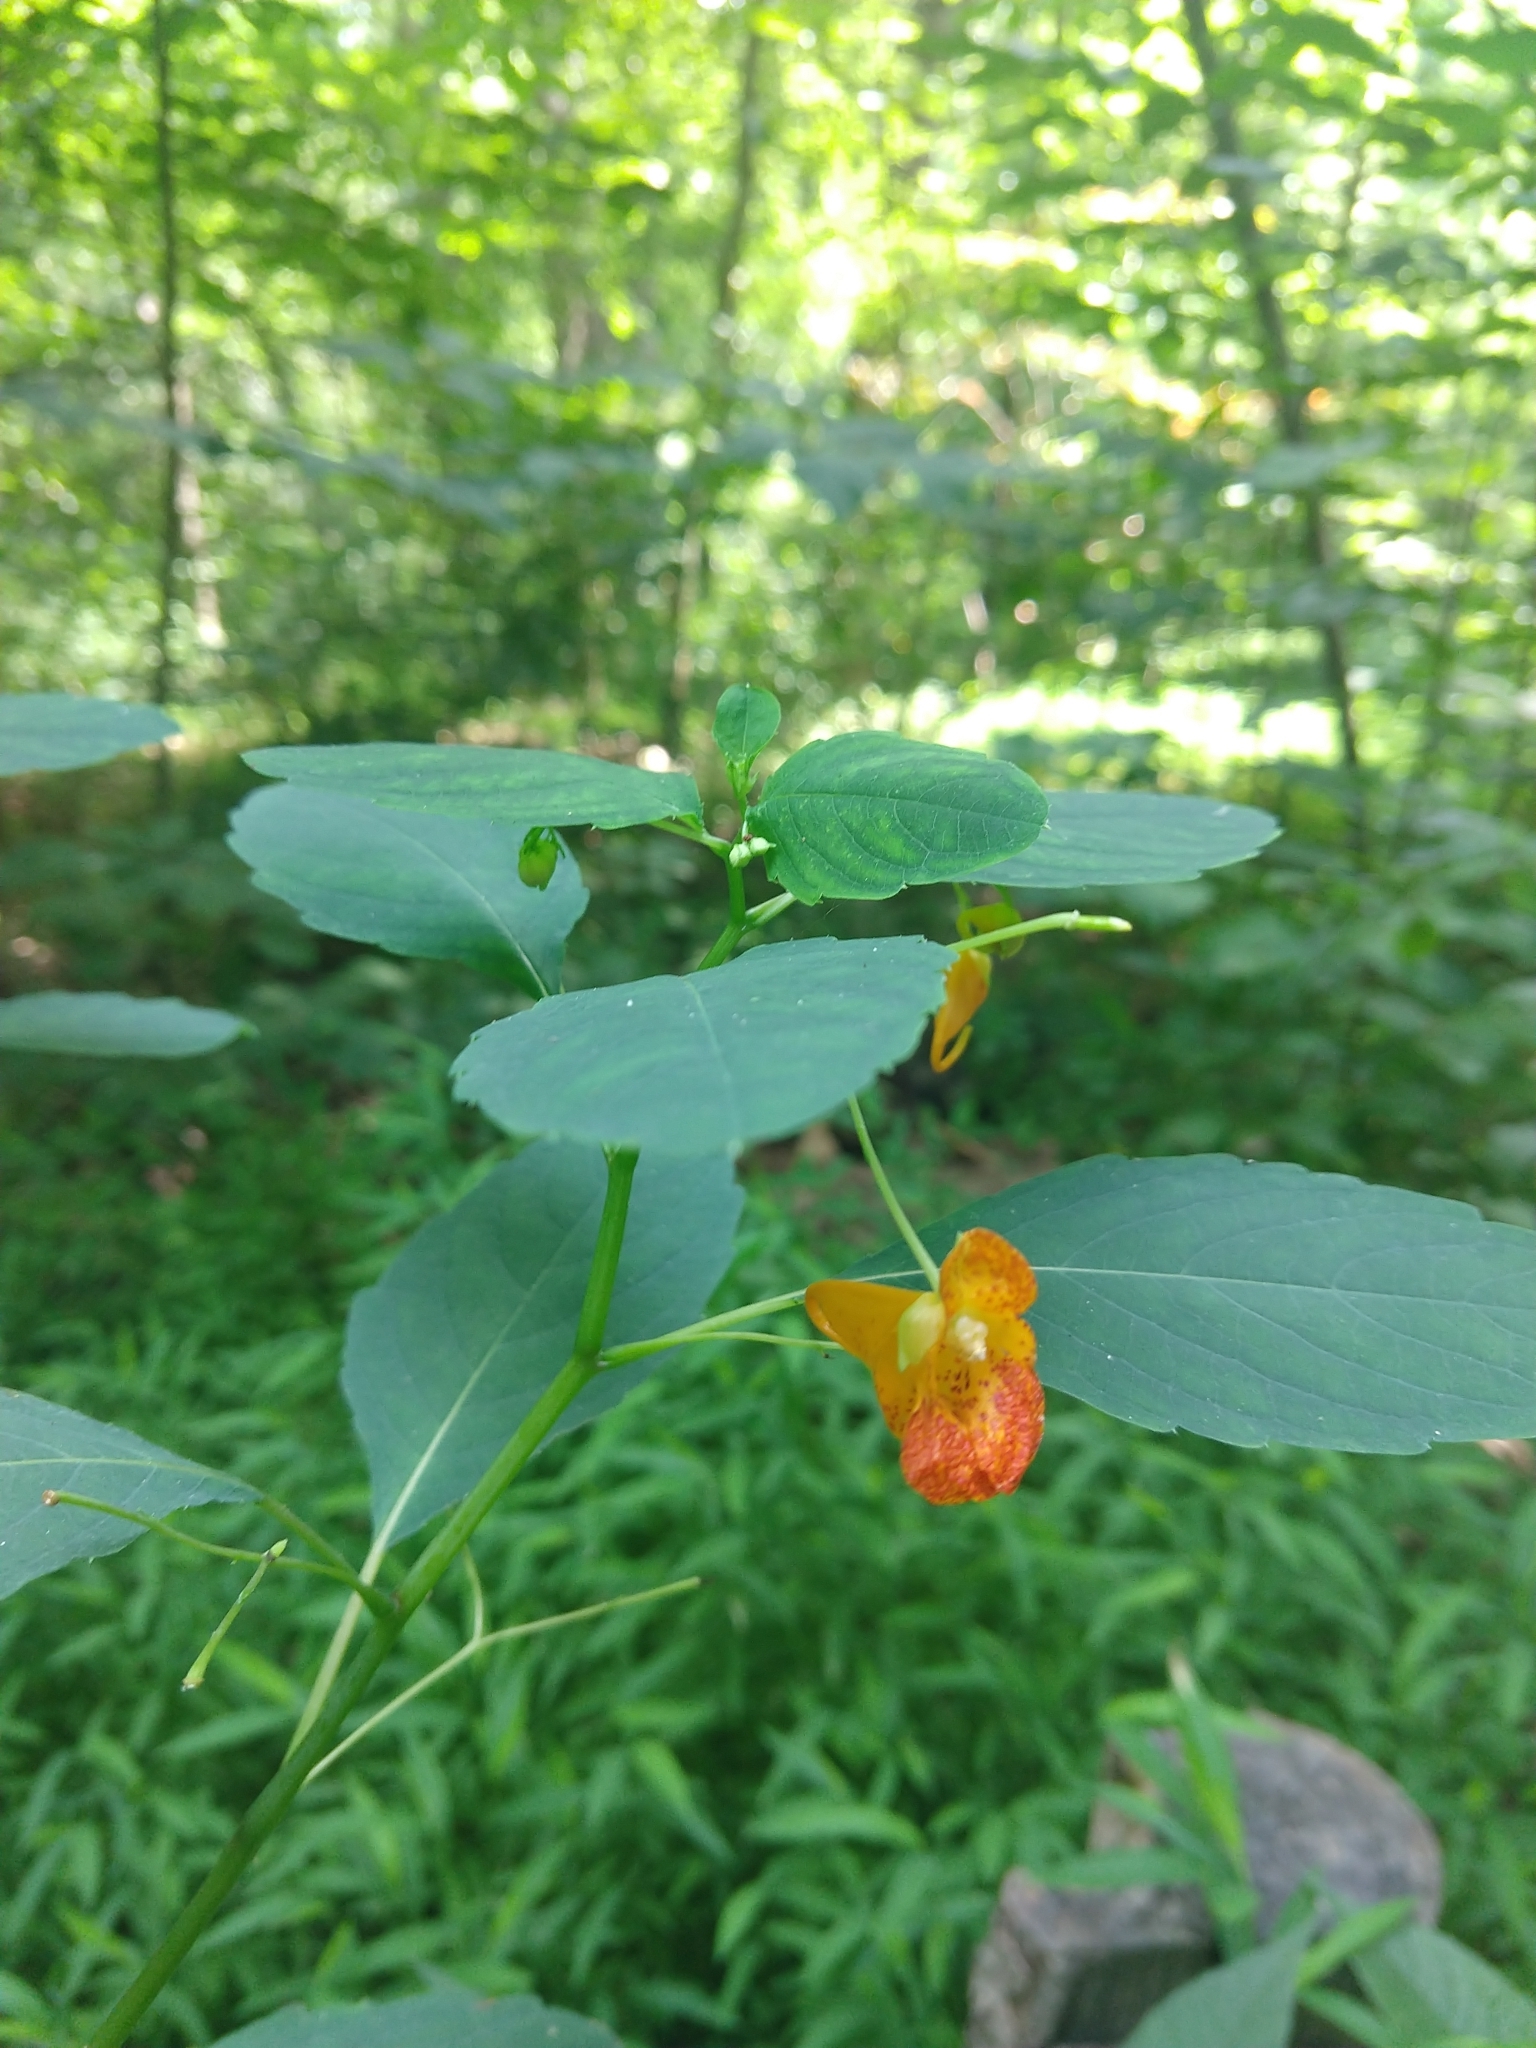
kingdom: Plantae
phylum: Tracheophyta
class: Magnoliopsida
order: Ericales
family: Balsaminaceae
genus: Impatiens
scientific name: Impatiens capensis
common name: Orange balsam
